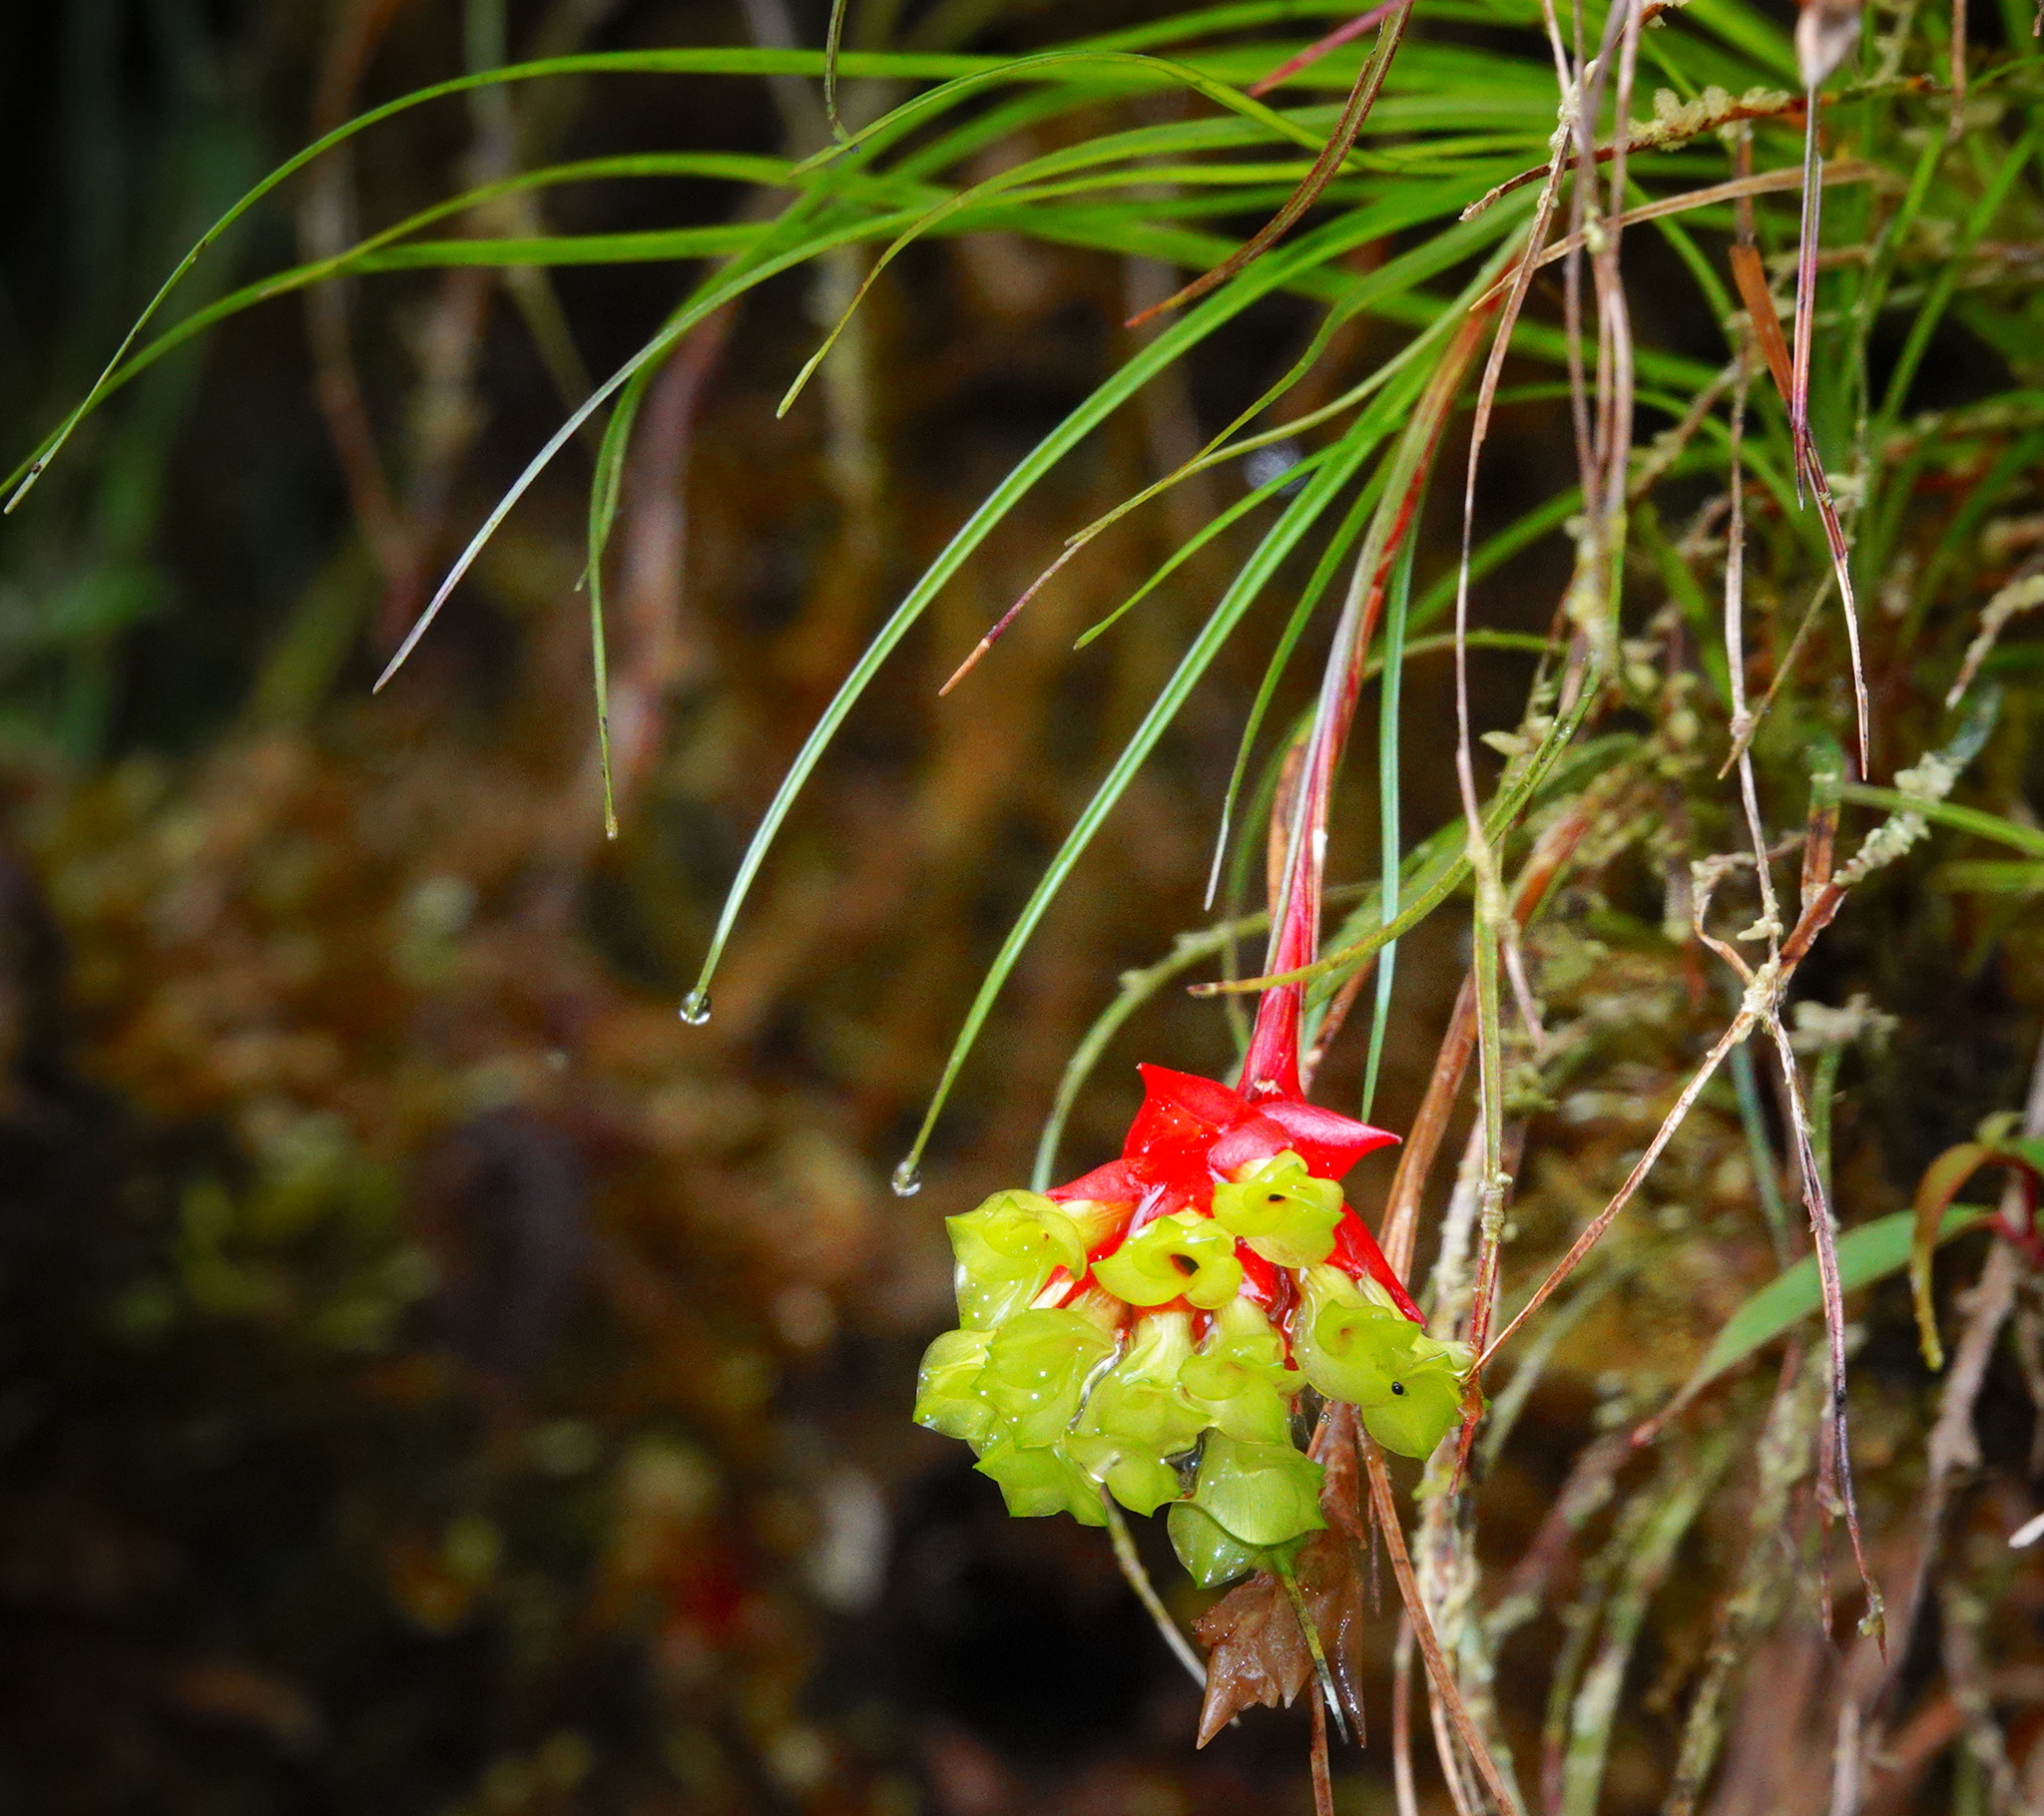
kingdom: Plantae
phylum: Tracheophyta
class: Liliopsida
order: Poales
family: Bromeliaceae
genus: Guzmania
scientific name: Guzmania graminifolia
